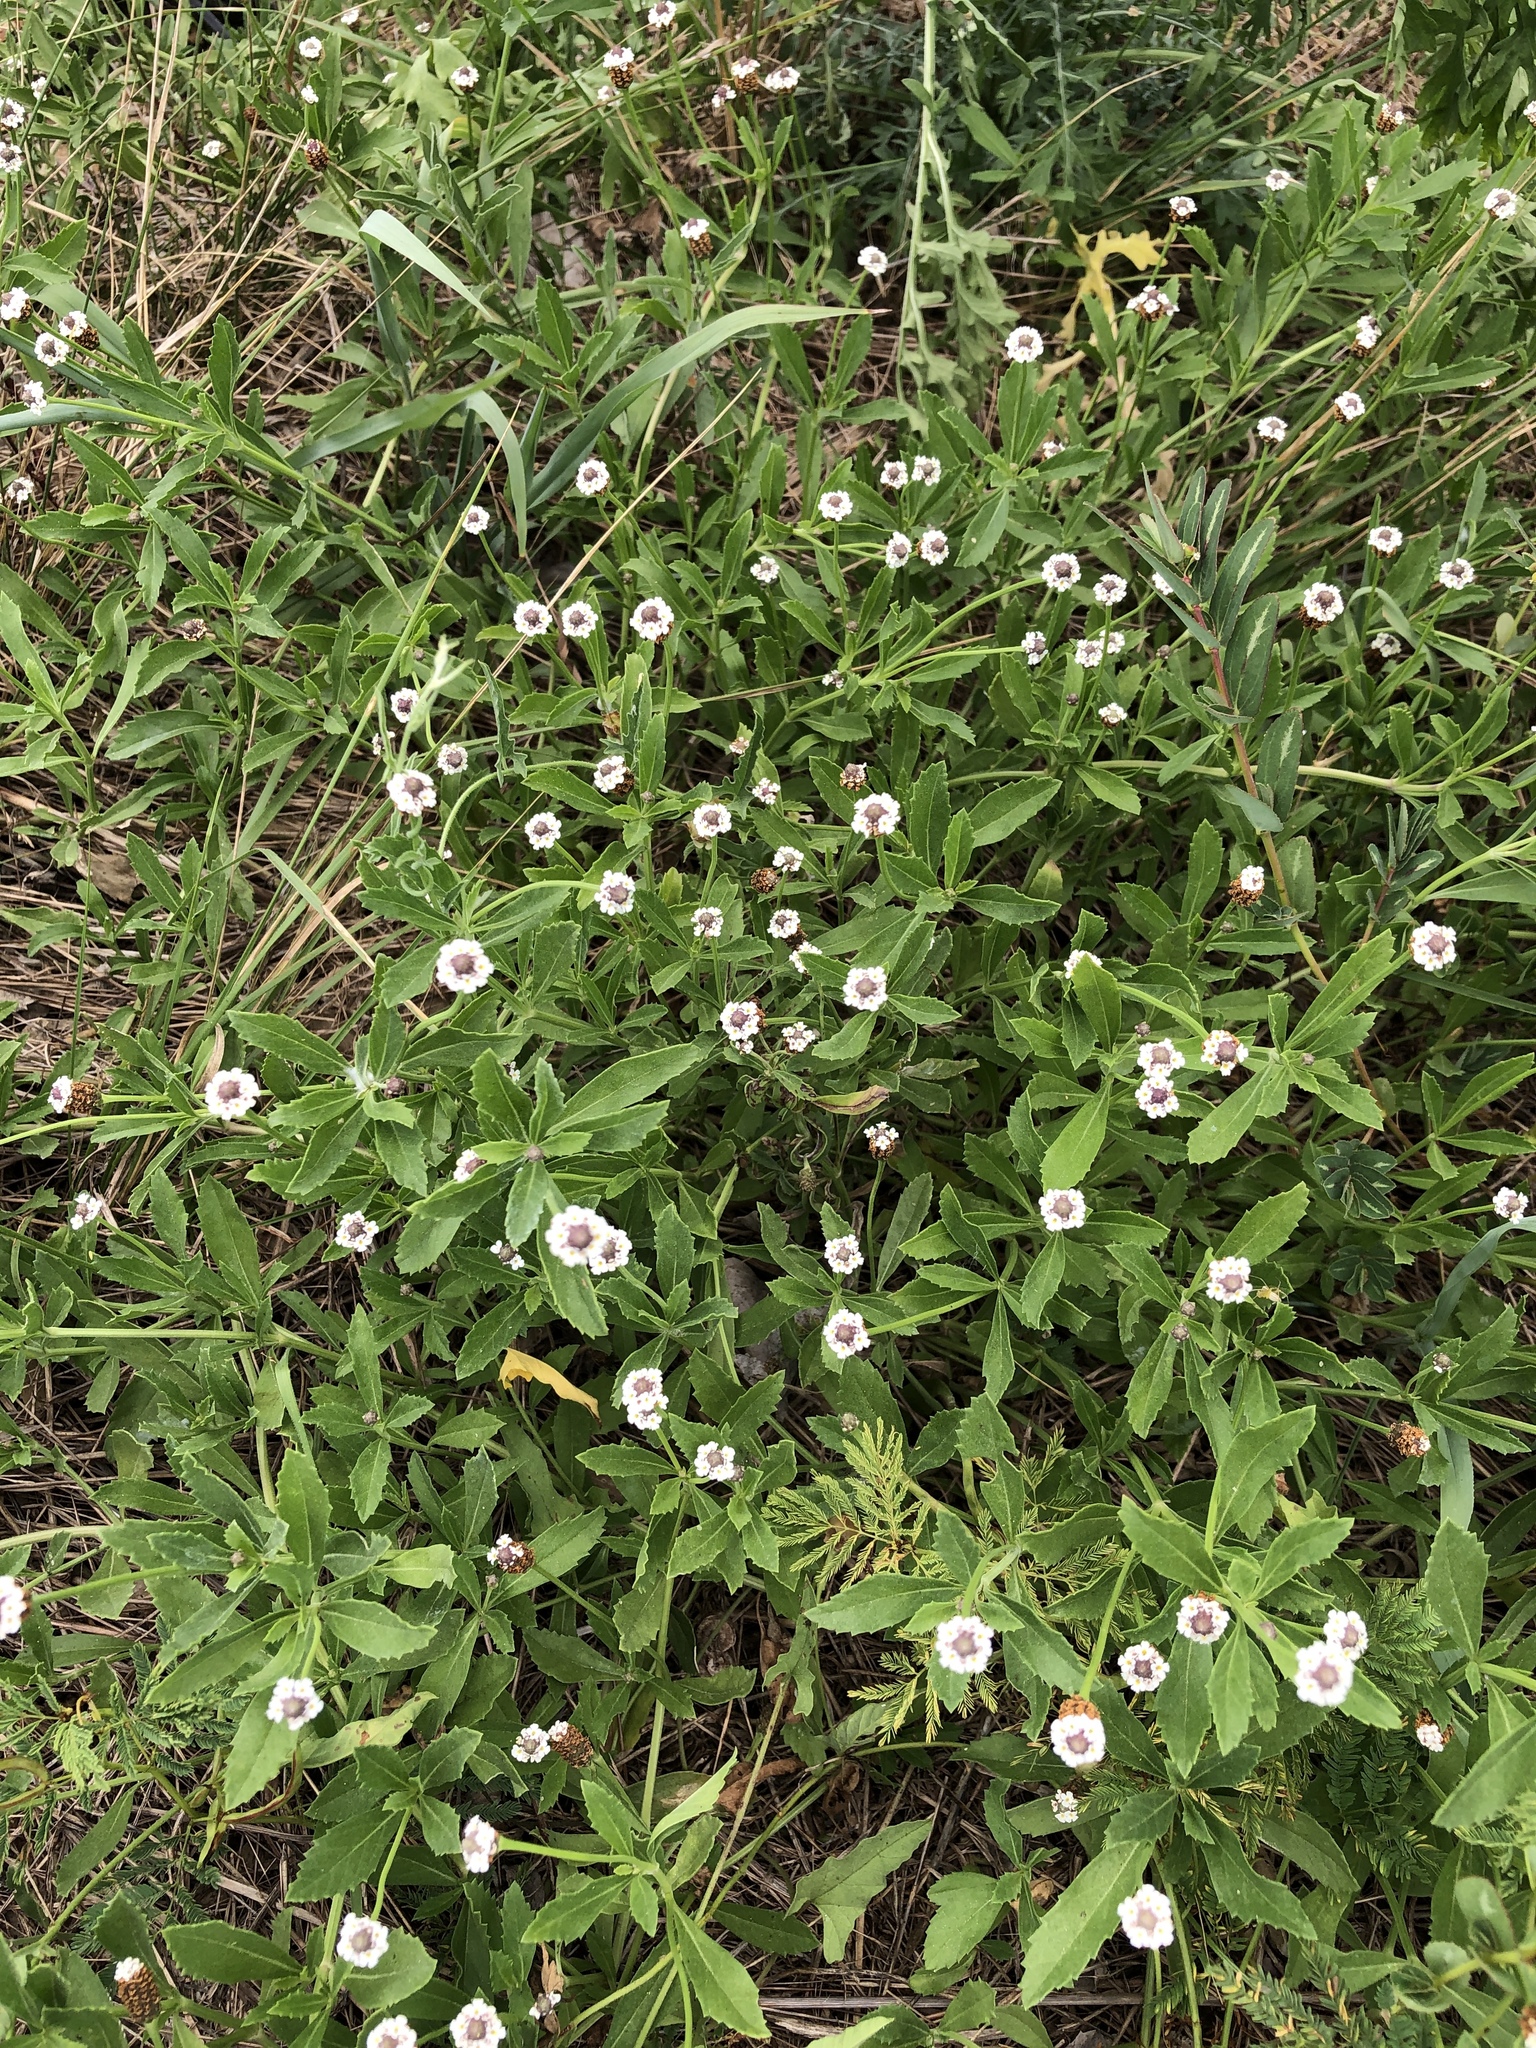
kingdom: Plantae
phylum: Tracheophyta
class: Magnoliopsida
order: Lamiales
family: Verbenaceae
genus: Phyla
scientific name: Phyla nodiflora
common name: Frogfruit
